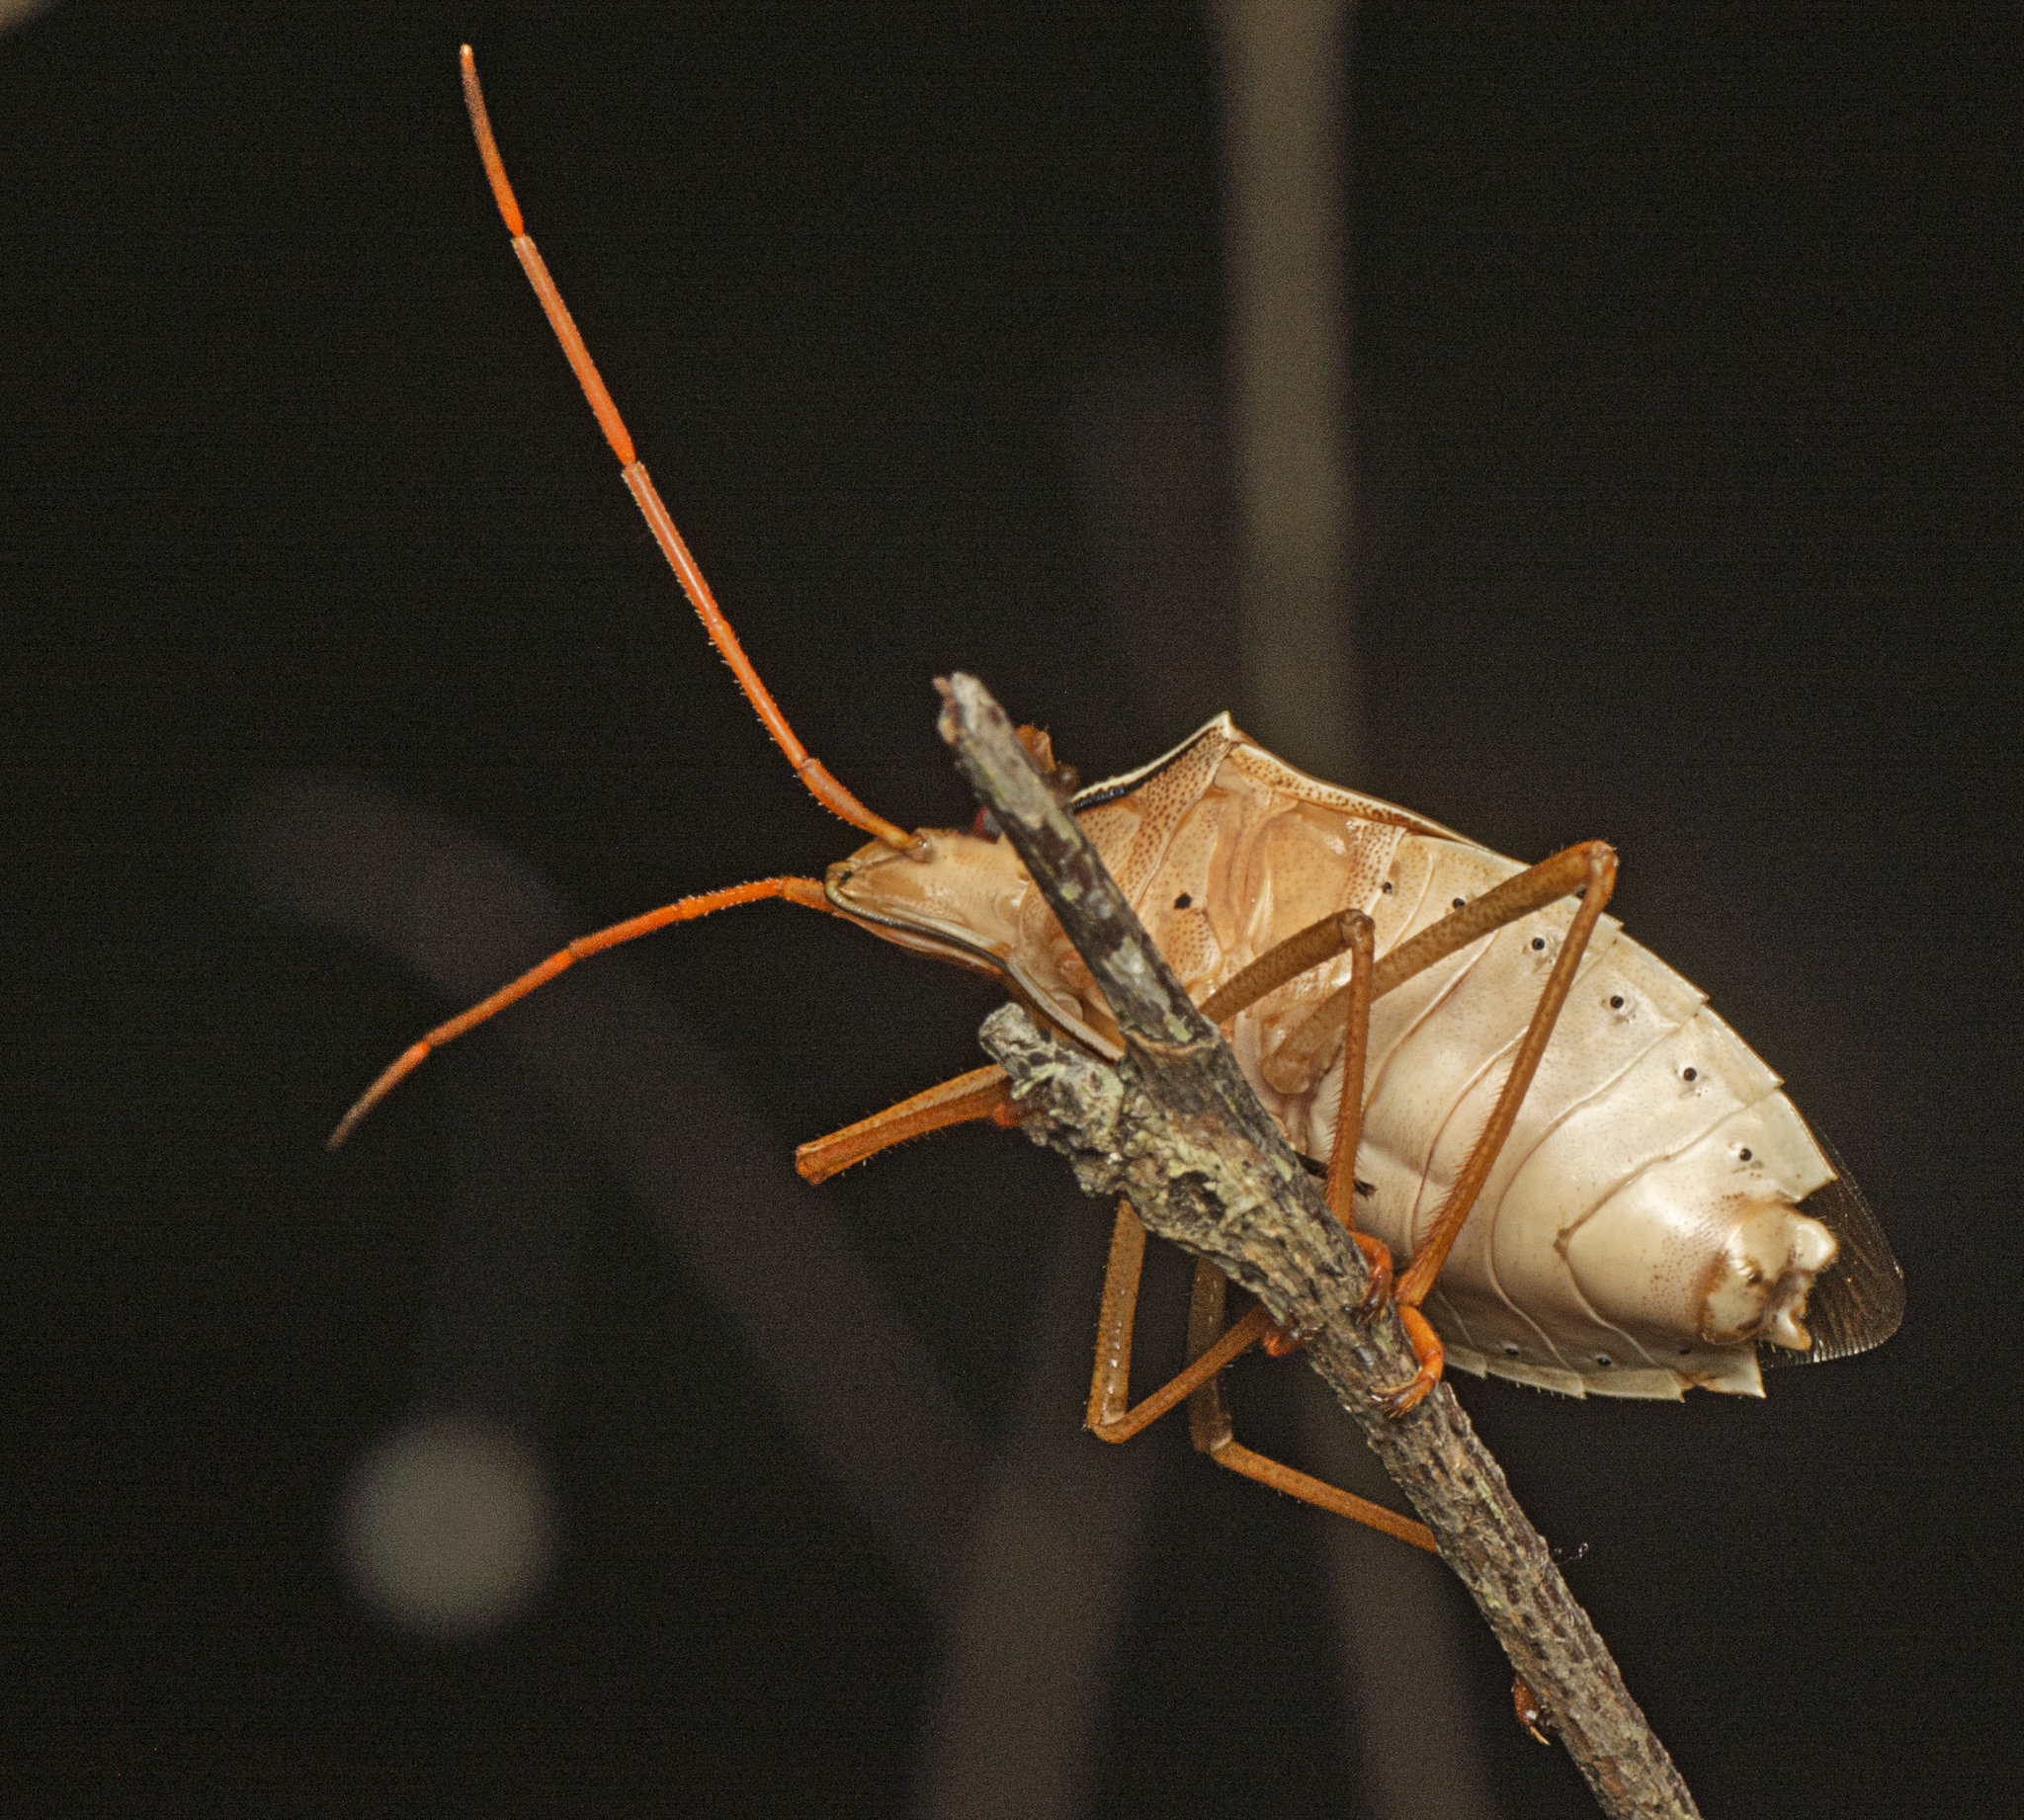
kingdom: Animalia
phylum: Arthropoda
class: Insecta
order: Hemiptera
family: Pentatomidae
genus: Poecilometis
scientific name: Poecilometis
